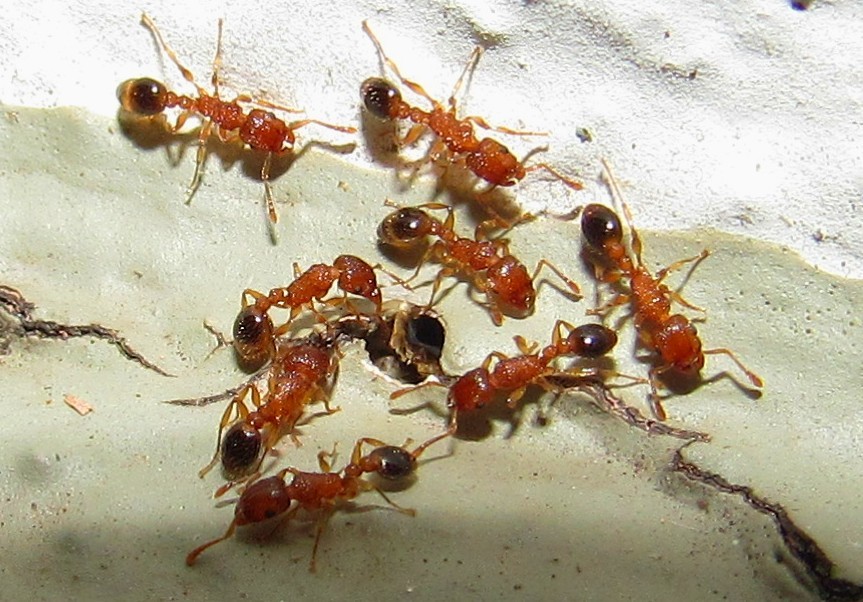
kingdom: Animalia
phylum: Arthropoda
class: Insecta
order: Hymenoptera
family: Formicidae
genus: Tetramorium
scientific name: Tetramorium bicarinatum
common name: Guinea ant
